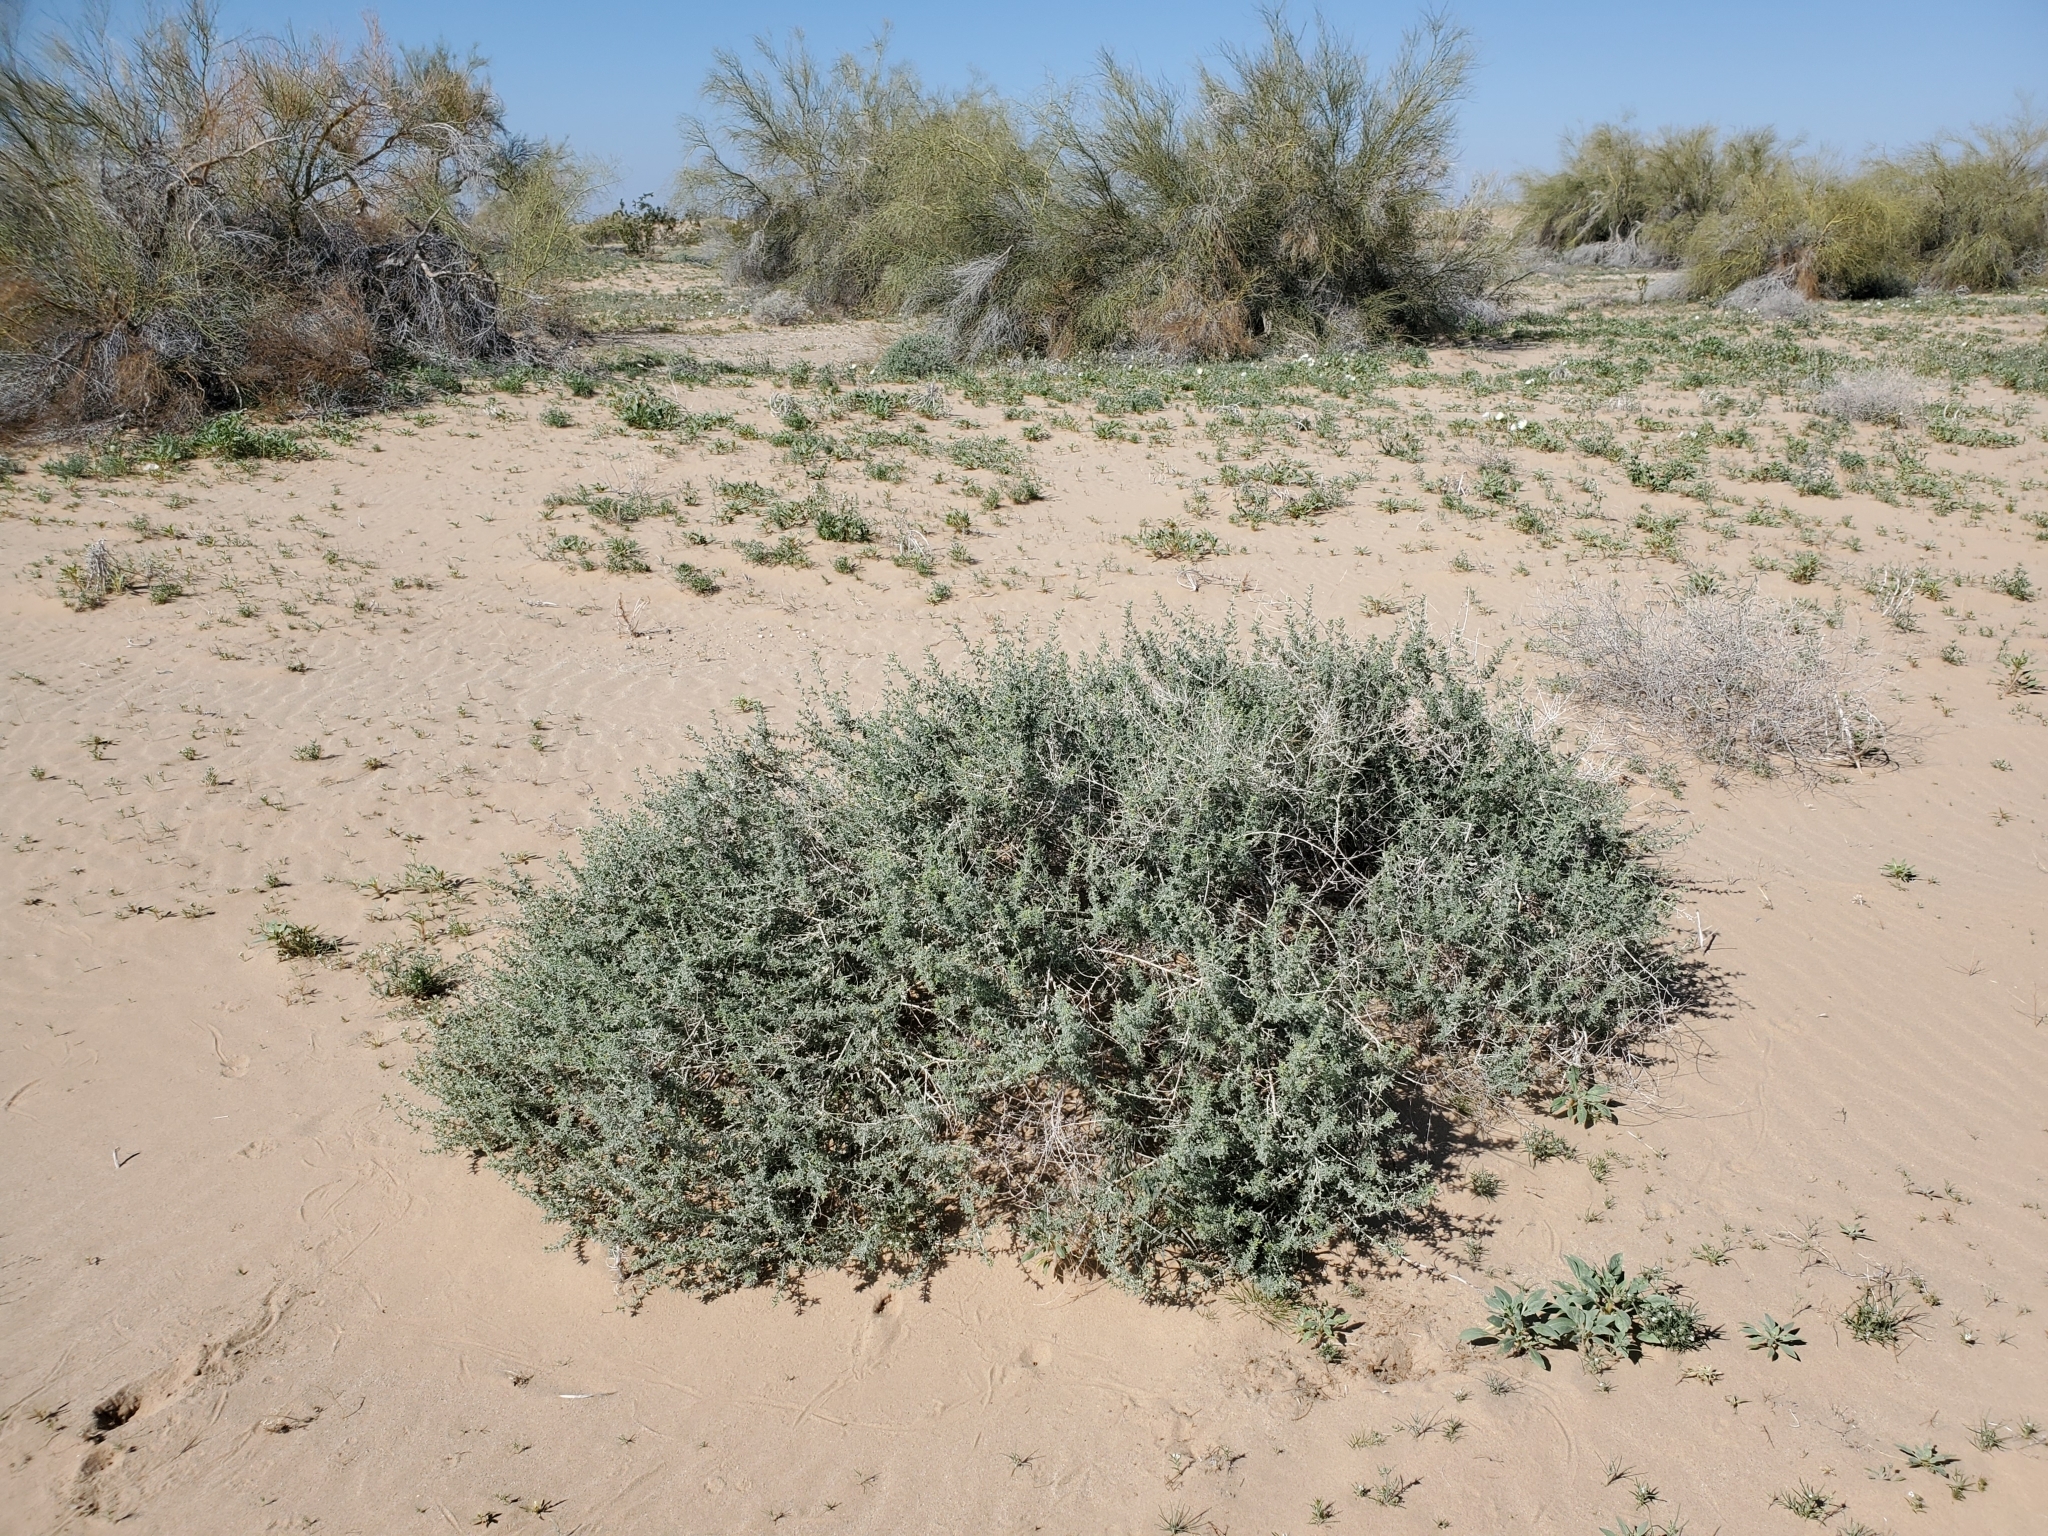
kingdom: Plantae
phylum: Tracheophyta
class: Magnoliopsida
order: Asterales
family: Asteraceae
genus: Ambrosia
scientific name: Ambrosia dumosa
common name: Bur-sage
